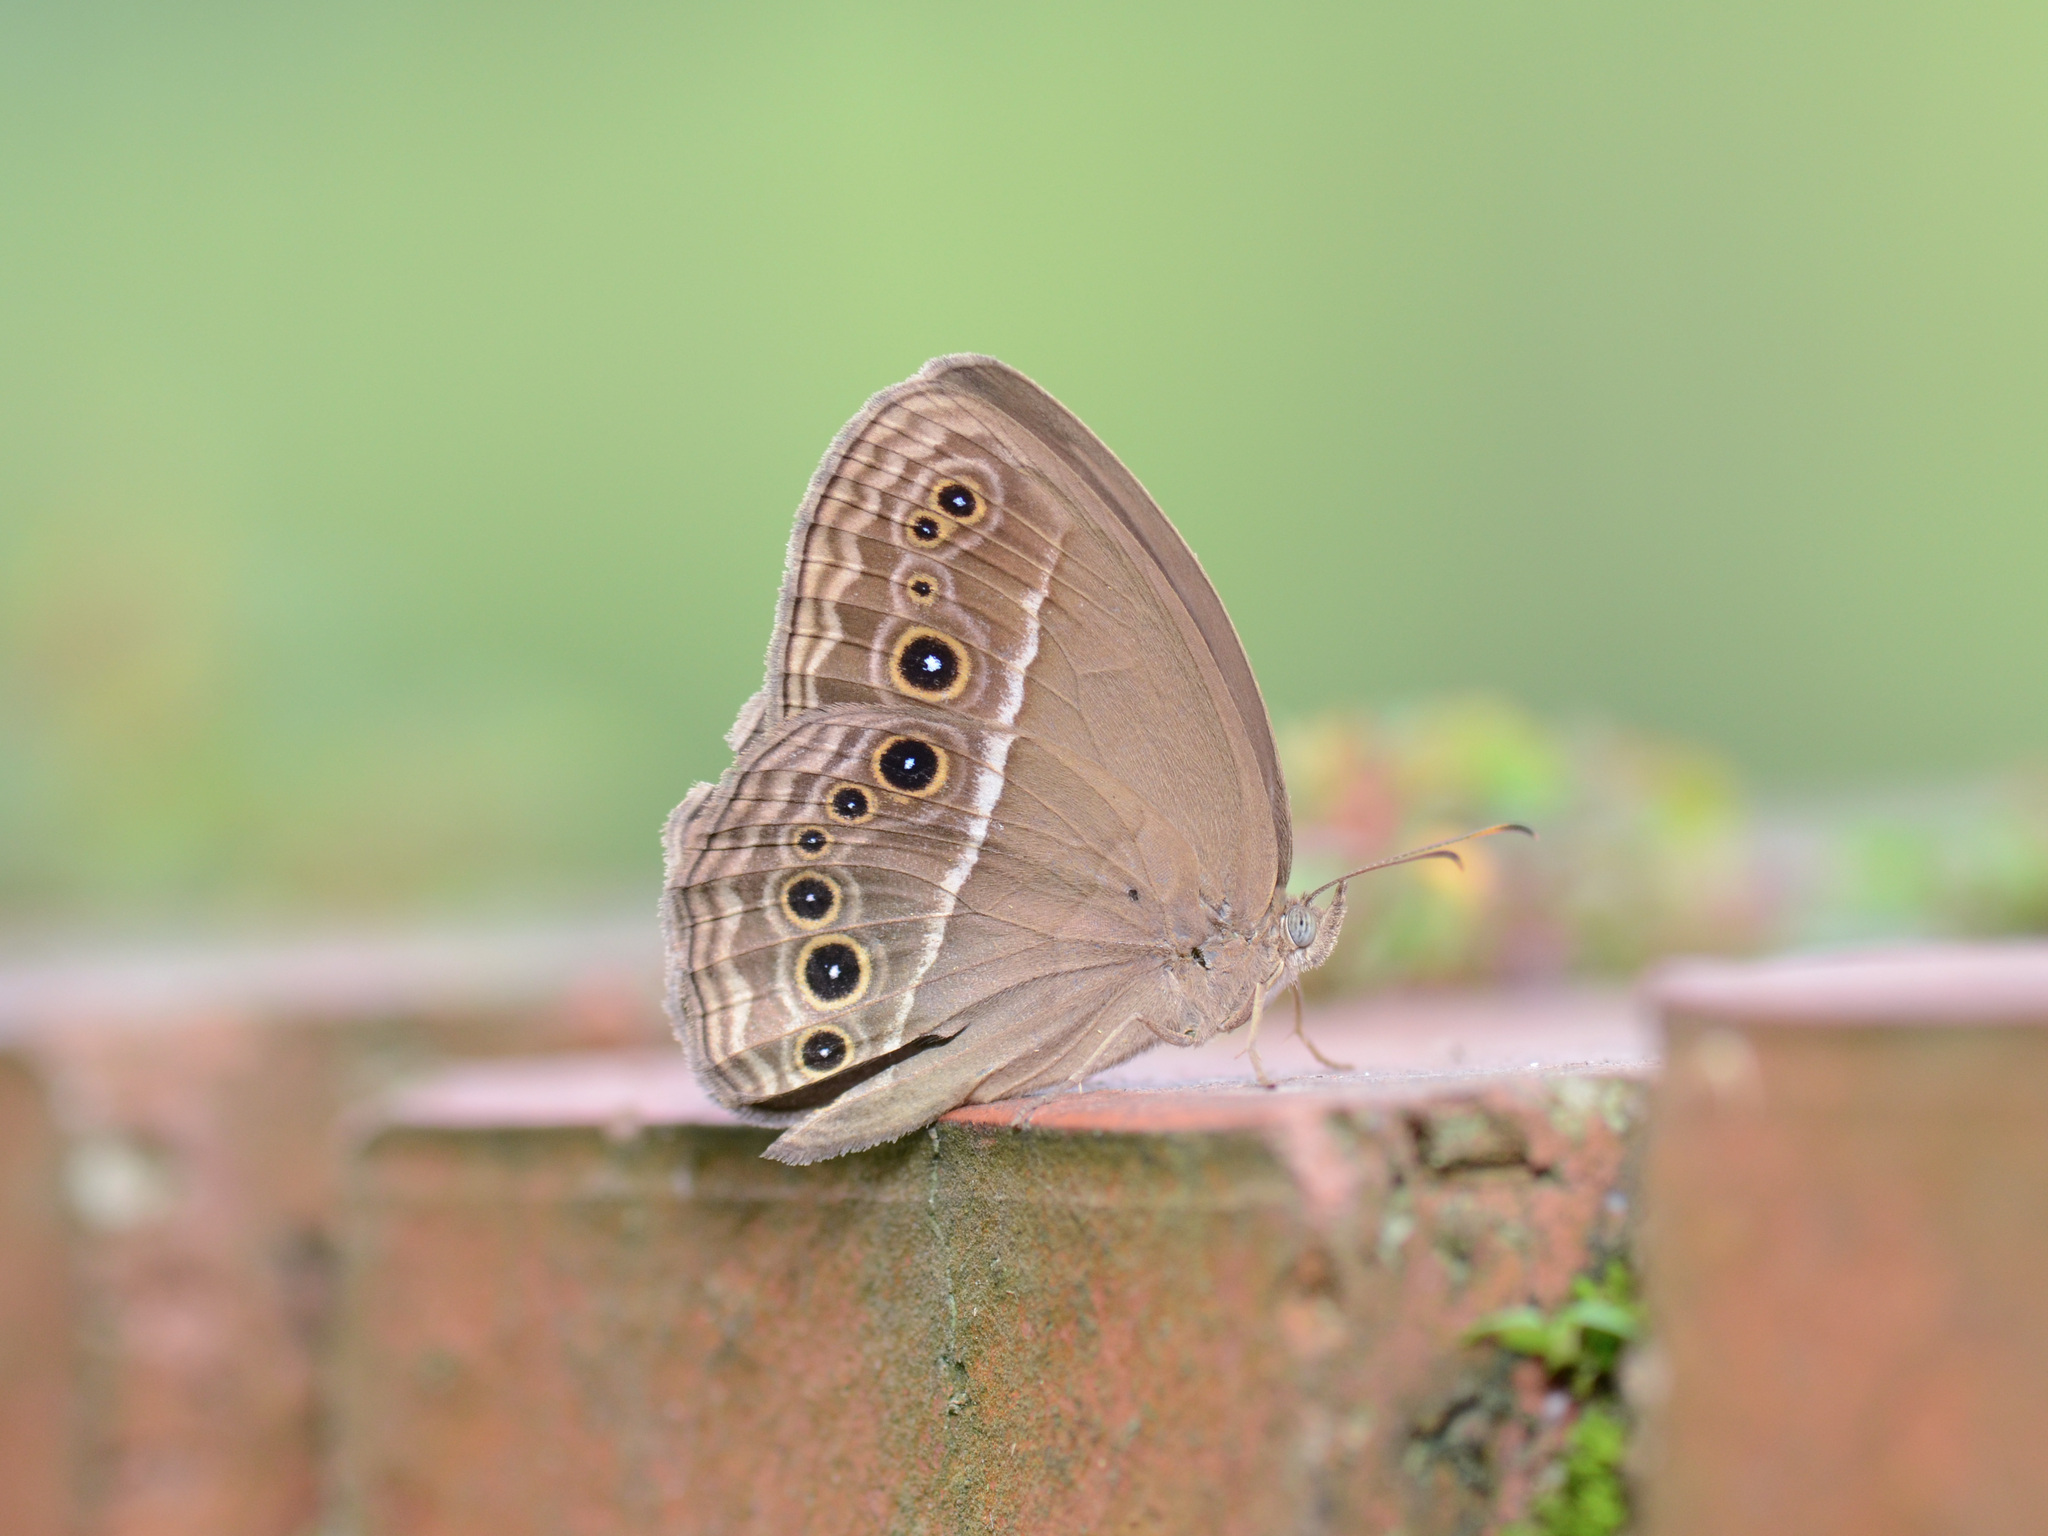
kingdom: Animalia
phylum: Arthropoda
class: Insecta
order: Lepidoptera
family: Nymphalidae
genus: Mycalesis
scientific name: Mycalesis perseus
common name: Dingy bushbrown
